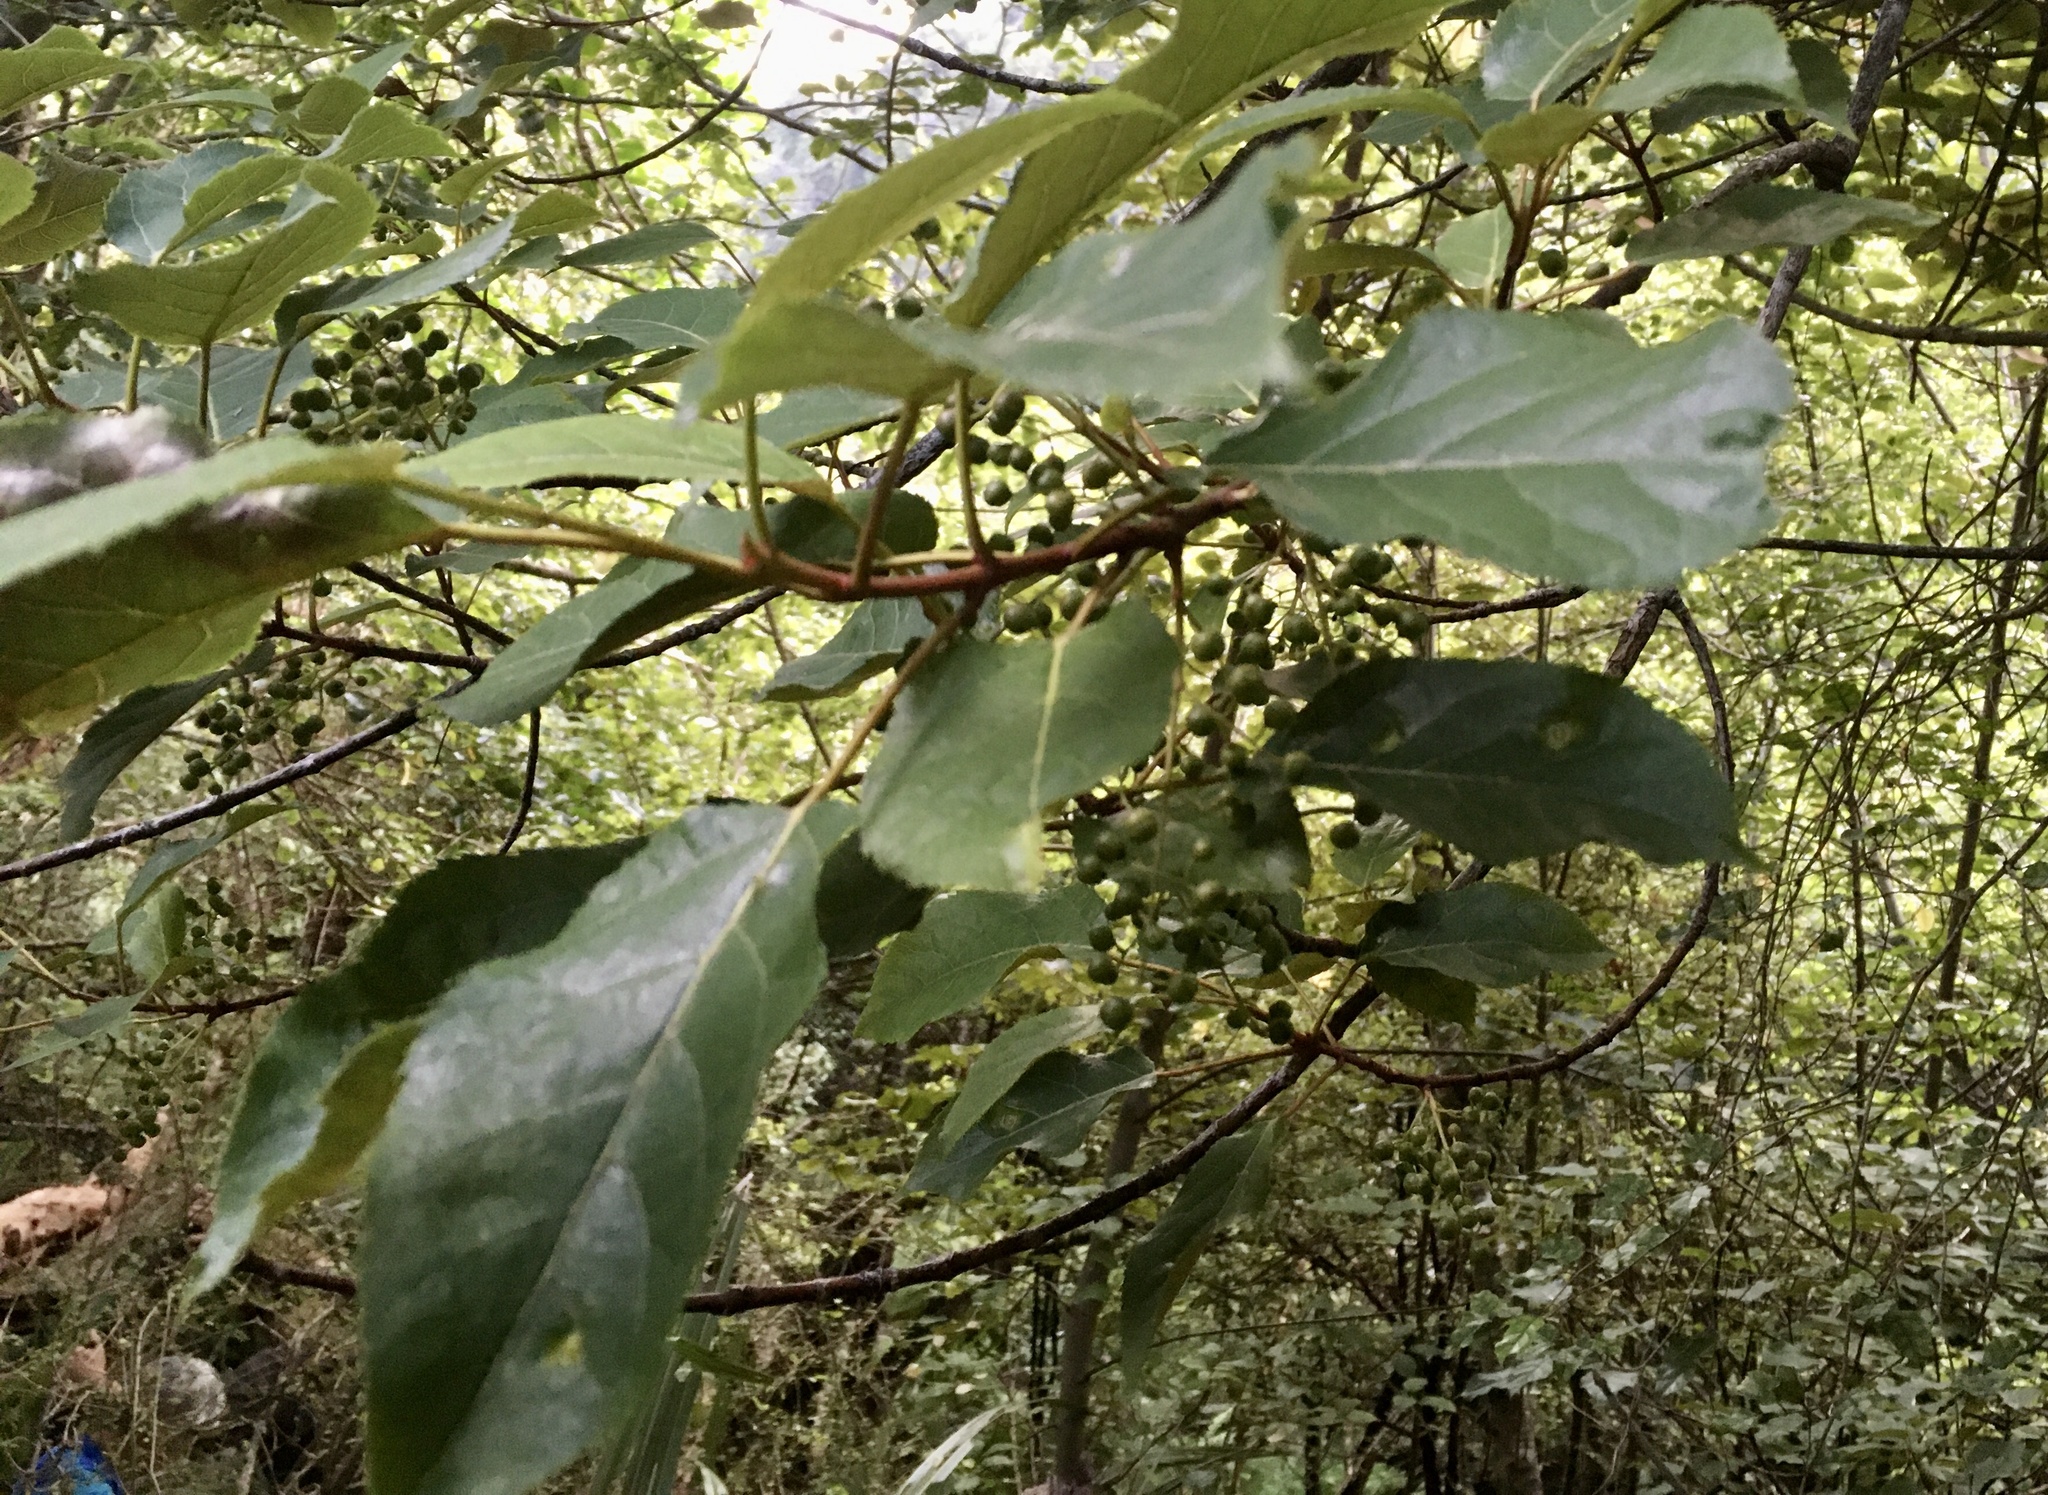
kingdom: Plantae
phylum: Tracheophyta
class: Magnoliopsida
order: Oxalidales
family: Elaeocarpaceae
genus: Aristotelia
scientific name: Aristotelia serrata
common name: New zealand wineberry
